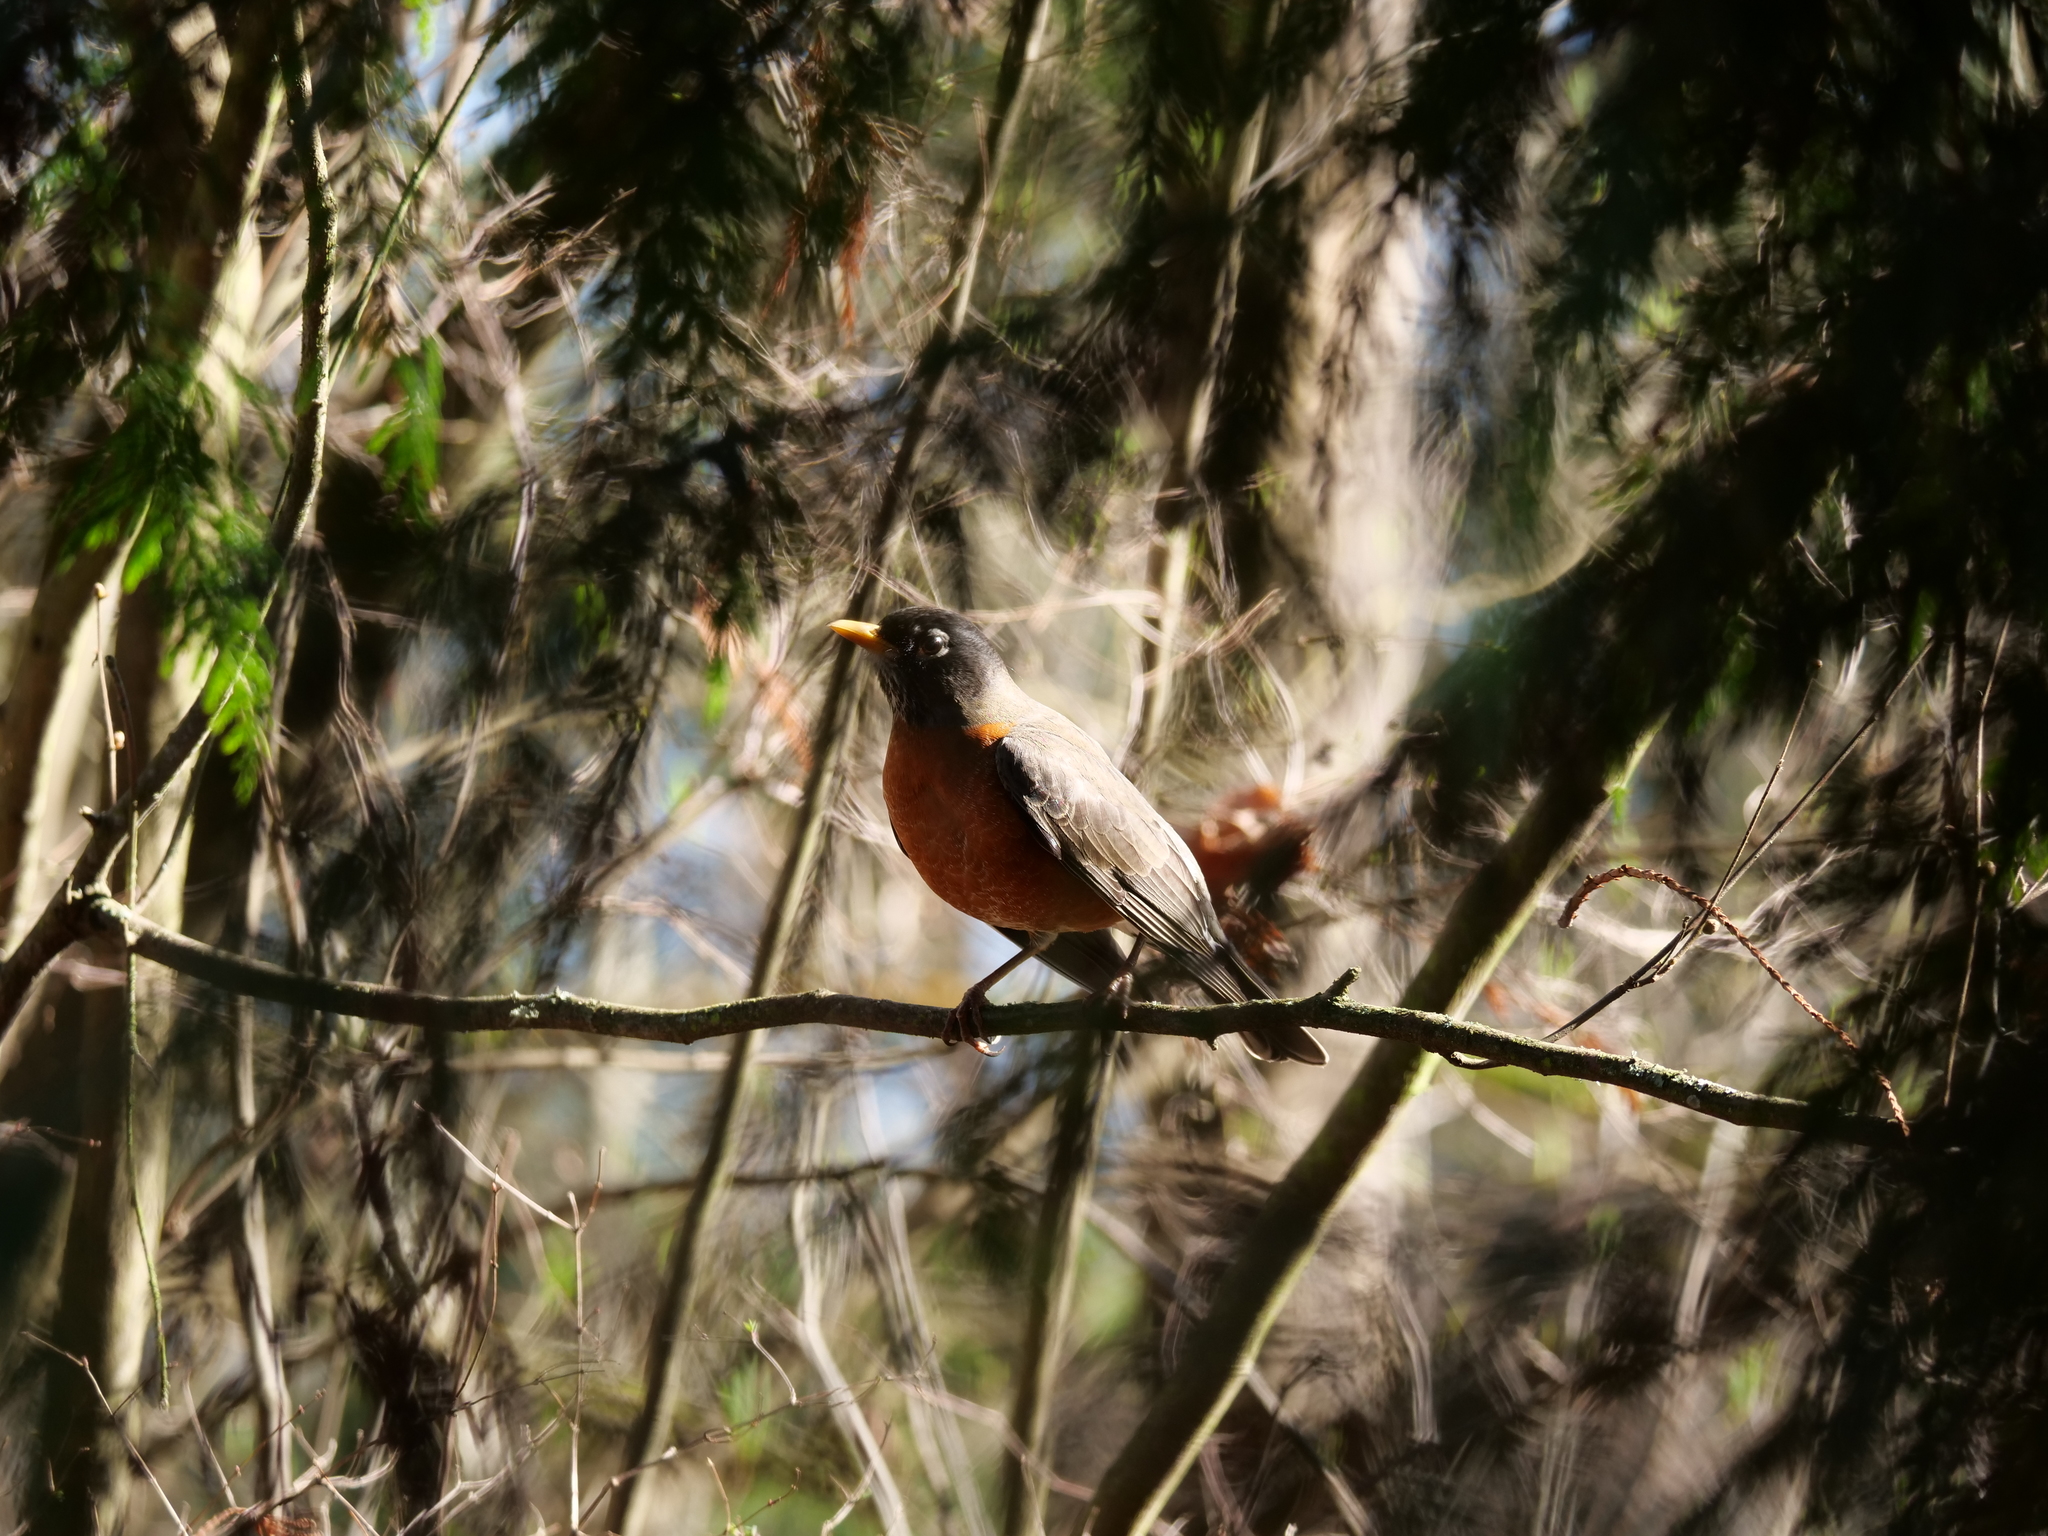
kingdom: Animalia
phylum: Chordata
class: Aves
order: Passeriformes
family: Turdidae
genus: Turdus
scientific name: Turdus migratorius
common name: American robin
